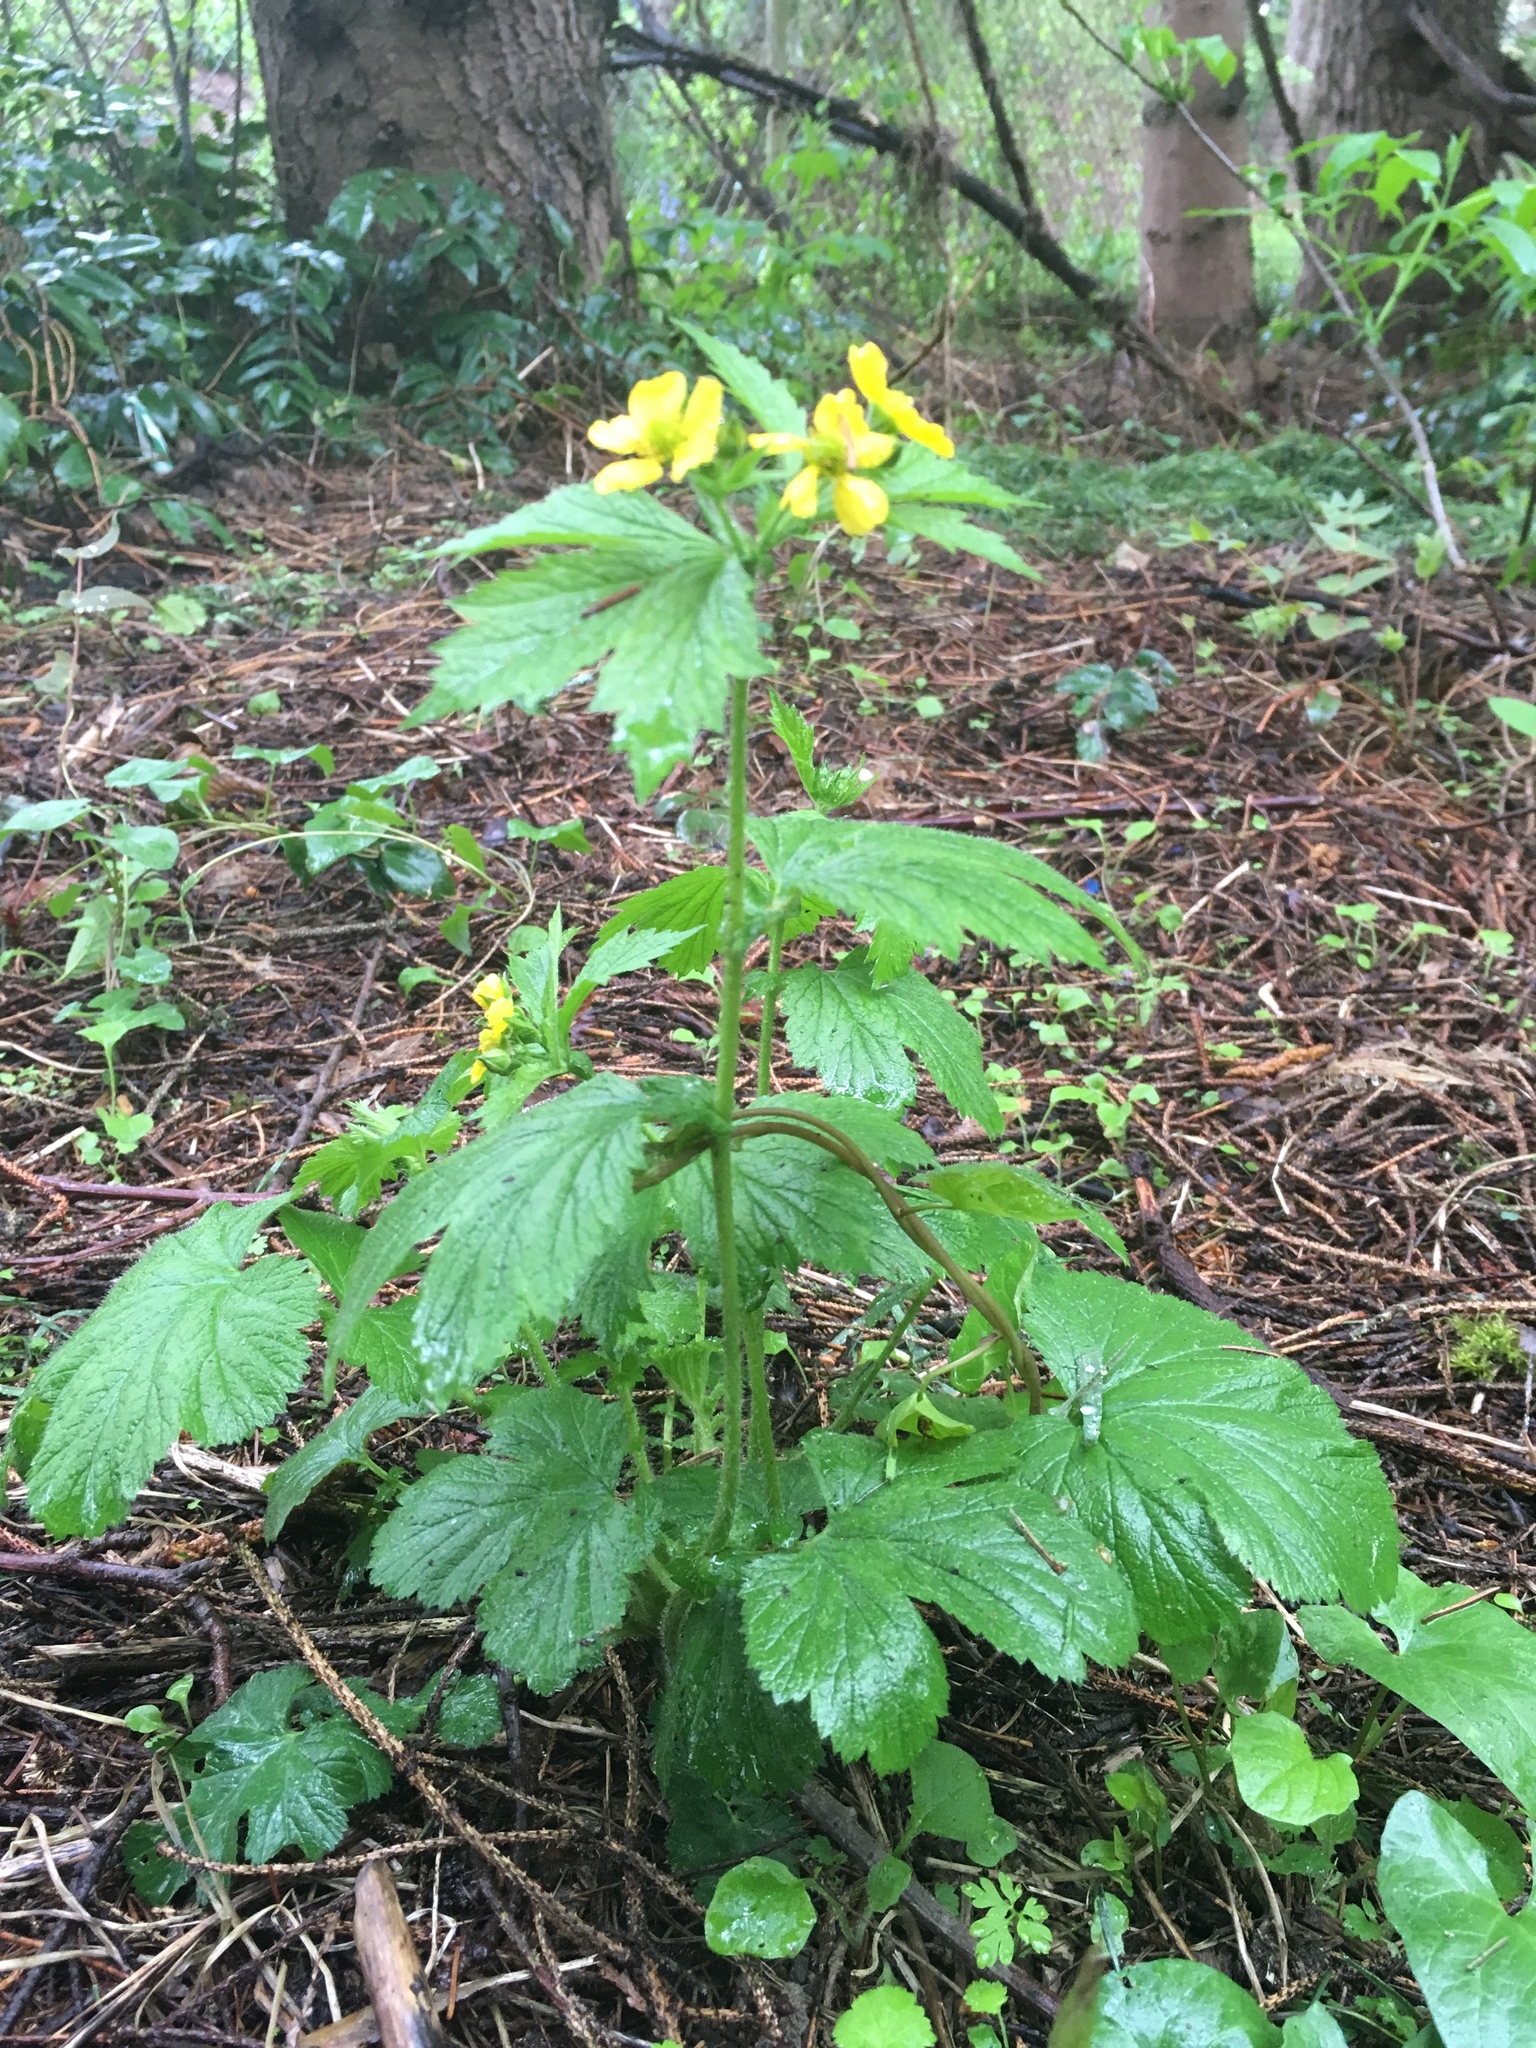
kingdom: Plantae
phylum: Tracheophyta
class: Magnoliopsida
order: Rosales
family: Rosaceae
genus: Geum
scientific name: Geum macrophyllum
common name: Large-leaved avens
